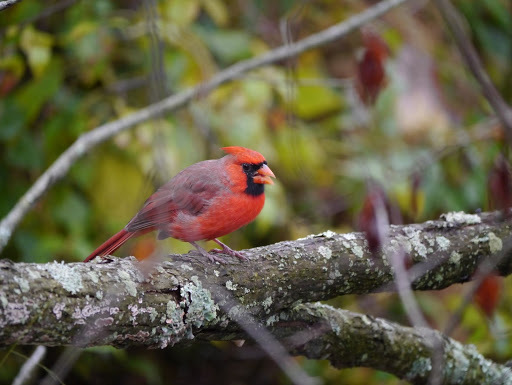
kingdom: Animalia
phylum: Chordata
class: Aves
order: Passeriformes
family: Cardinalidae
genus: Cardinalis
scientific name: Cardinalis cardinalis
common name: Northern cardinal
